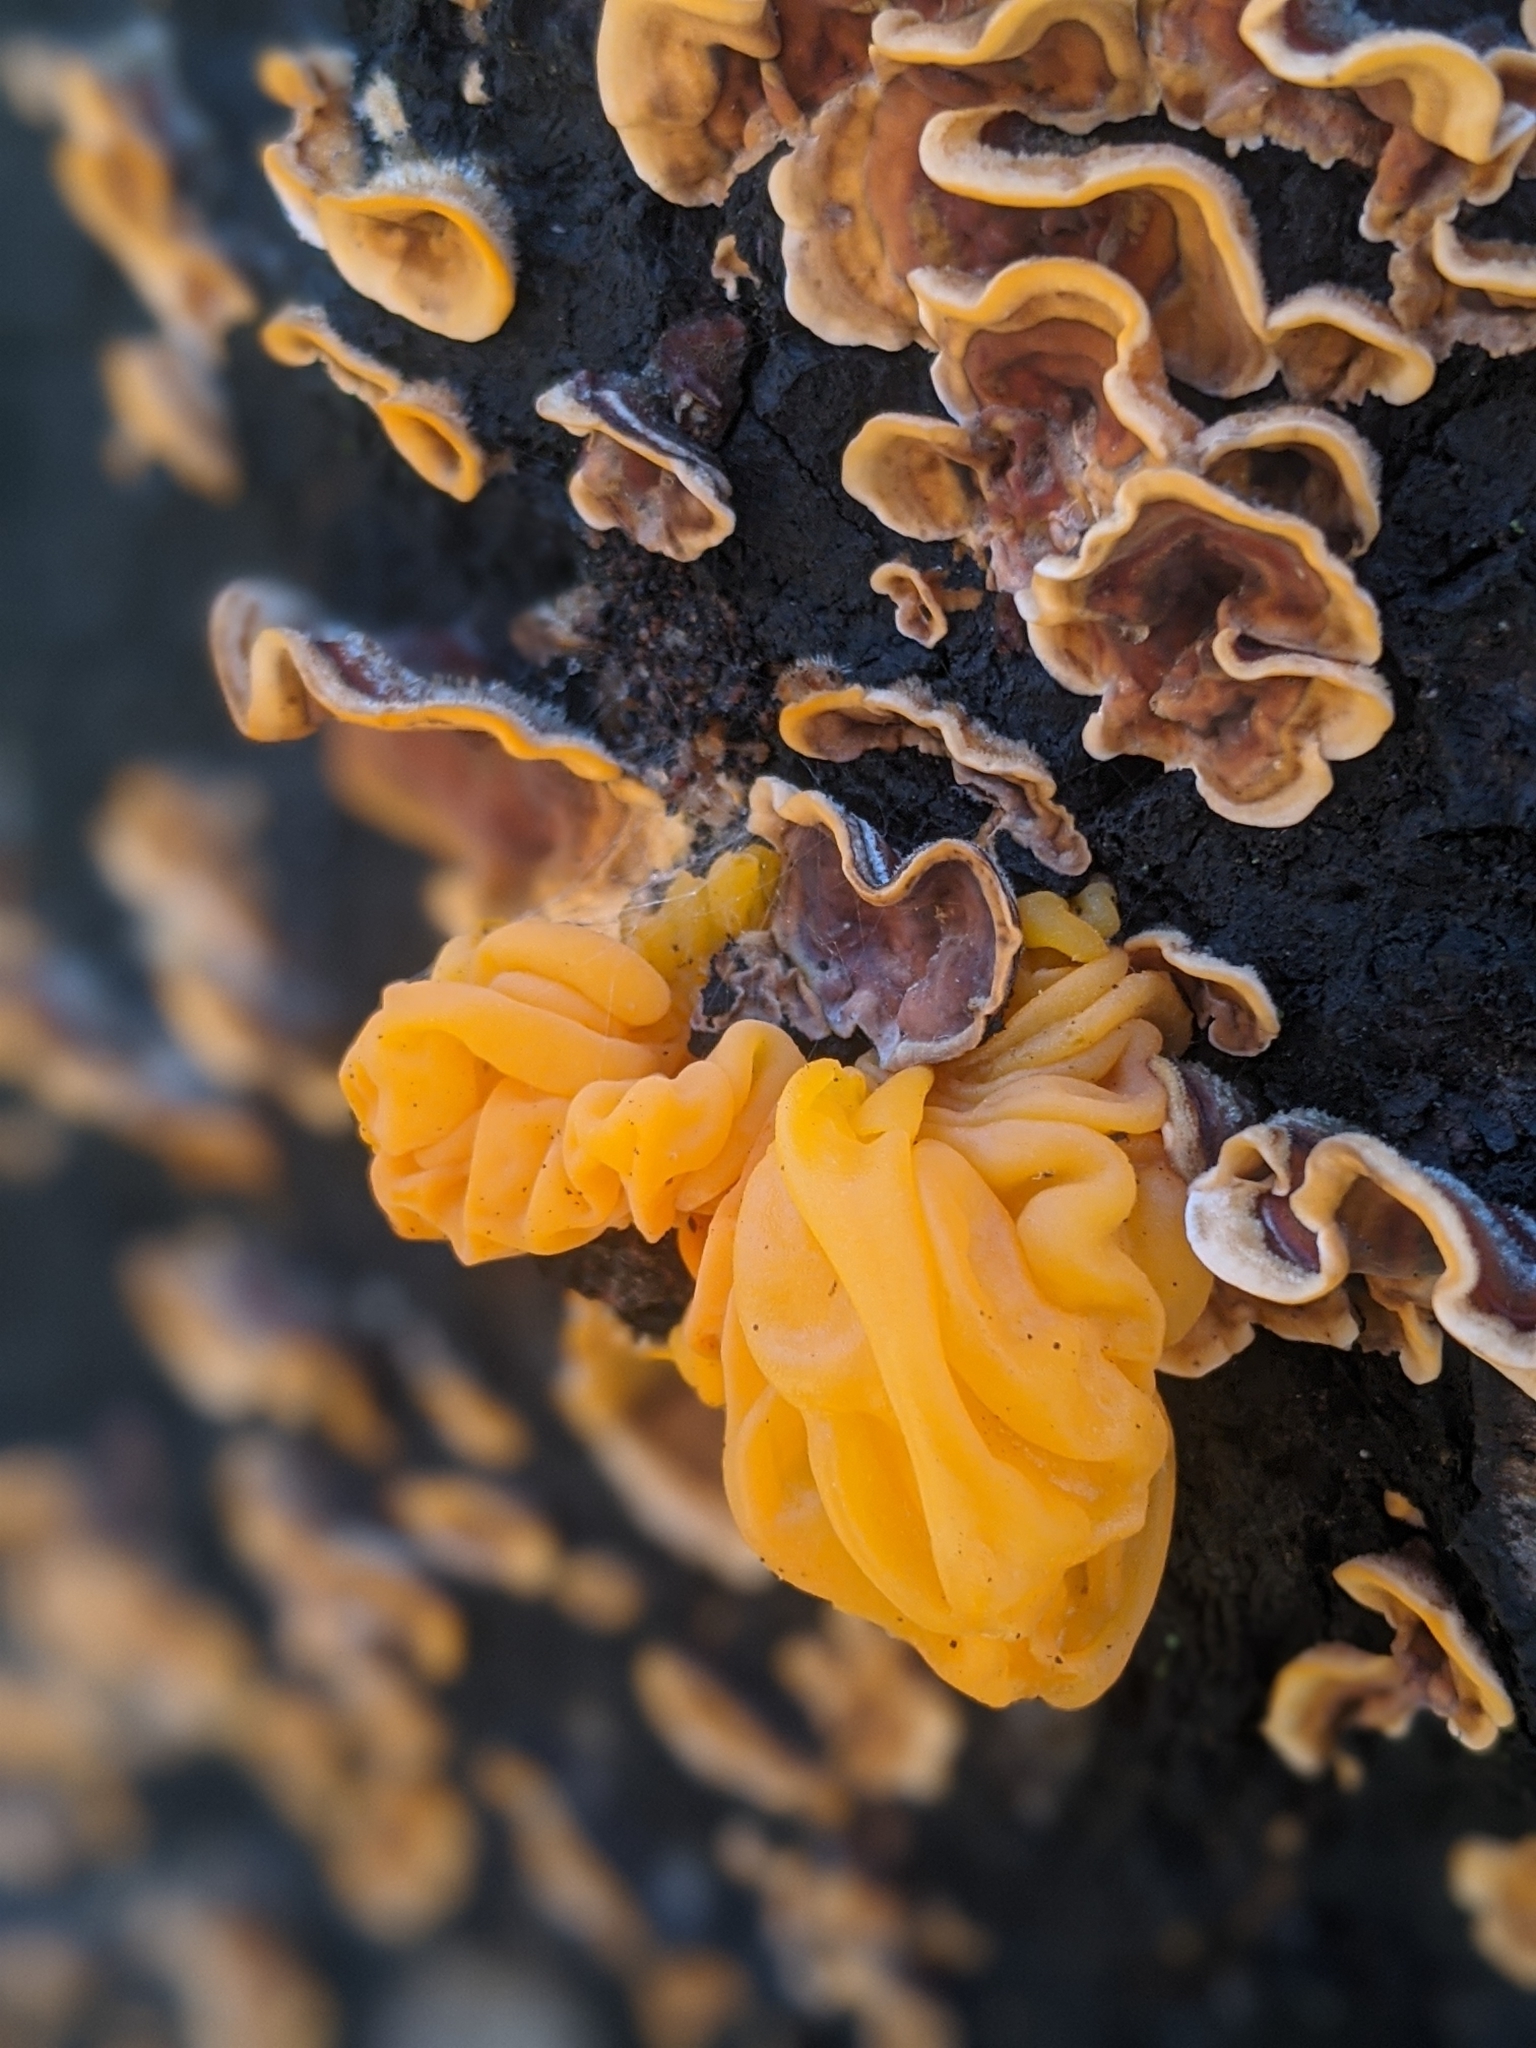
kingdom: Fungi
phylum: Basidiomycota
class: Tremellomycetes
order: Tremellales
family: Naemateliaceae
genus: Naematelia
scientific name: Naematelia aurantia
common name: Golden ear
